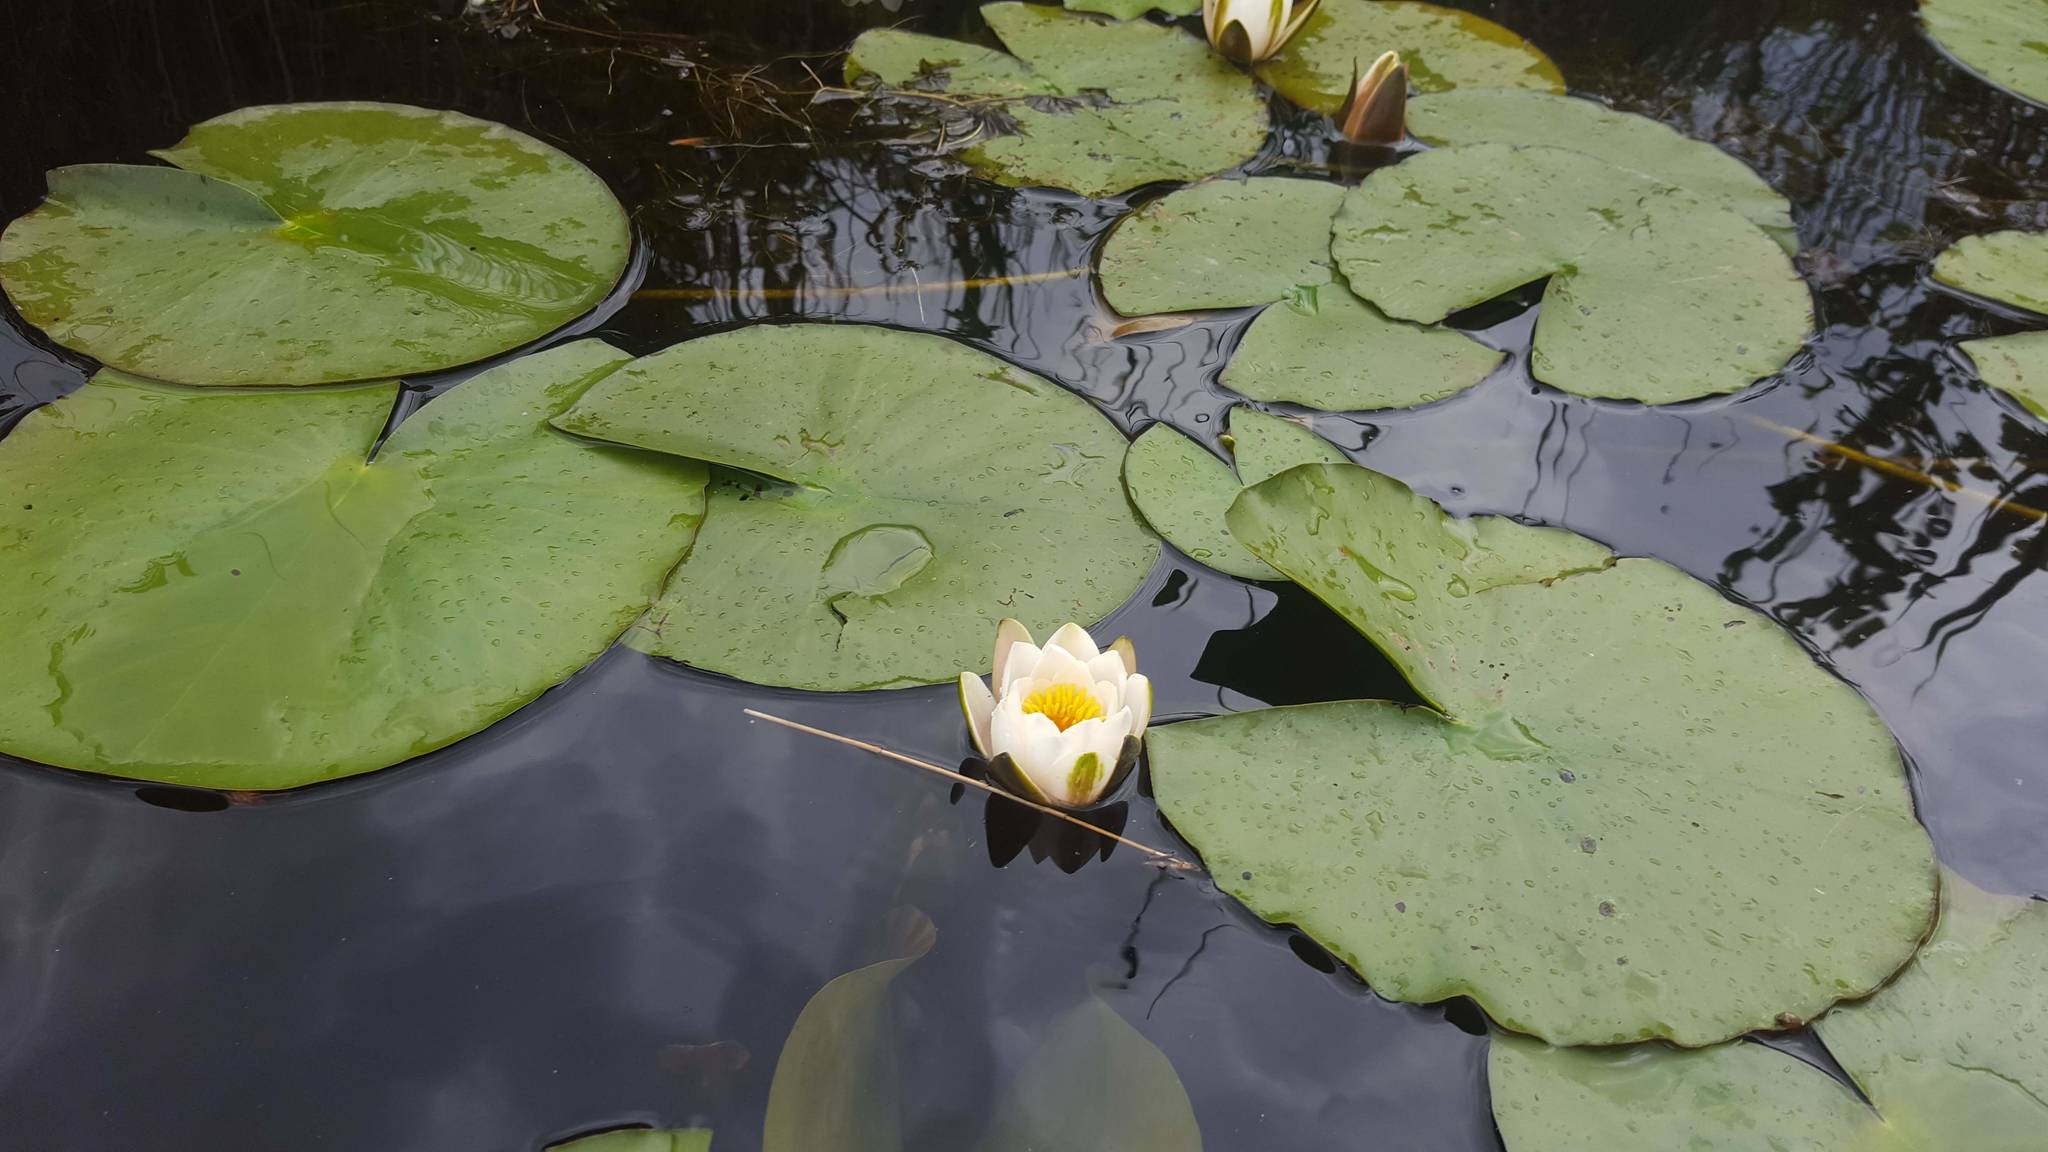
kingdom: Plantae
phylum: Tracheophyta
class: Magnoliopsida
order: Nymphaeales
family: Nymphaeaceae
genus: Nymphaea
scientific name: Nymphaea alba
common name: White water-lily
